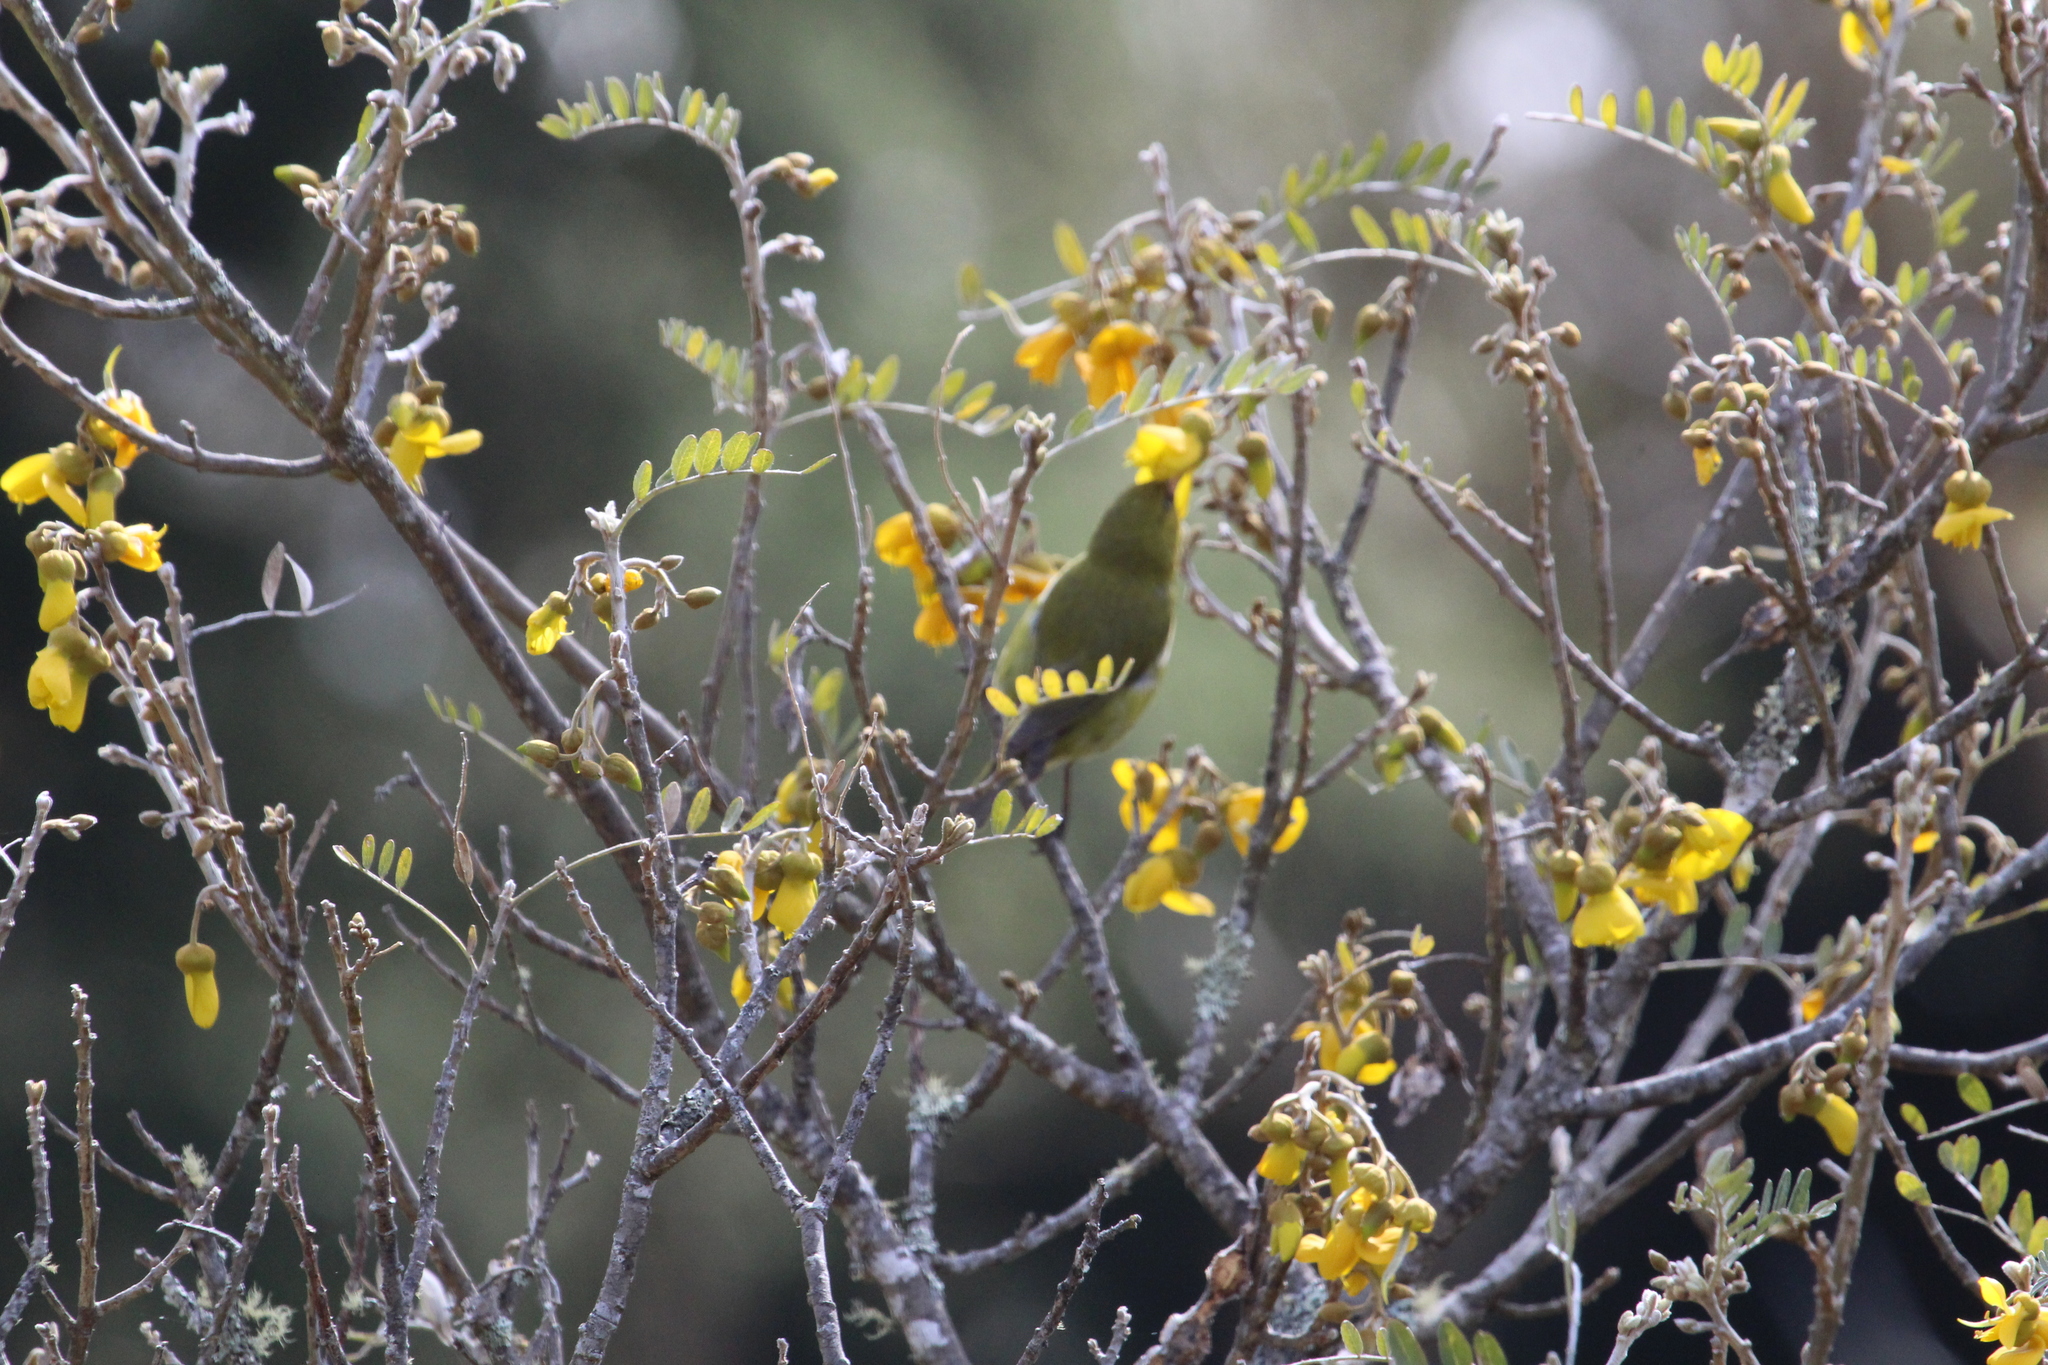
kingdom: Animalia
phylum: Chordata
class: Aves
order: Passeriformes
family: Fringillidae
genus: Chlorodrepanis
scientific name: Chlorodrepanis virens
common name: Hawaii amakihi
